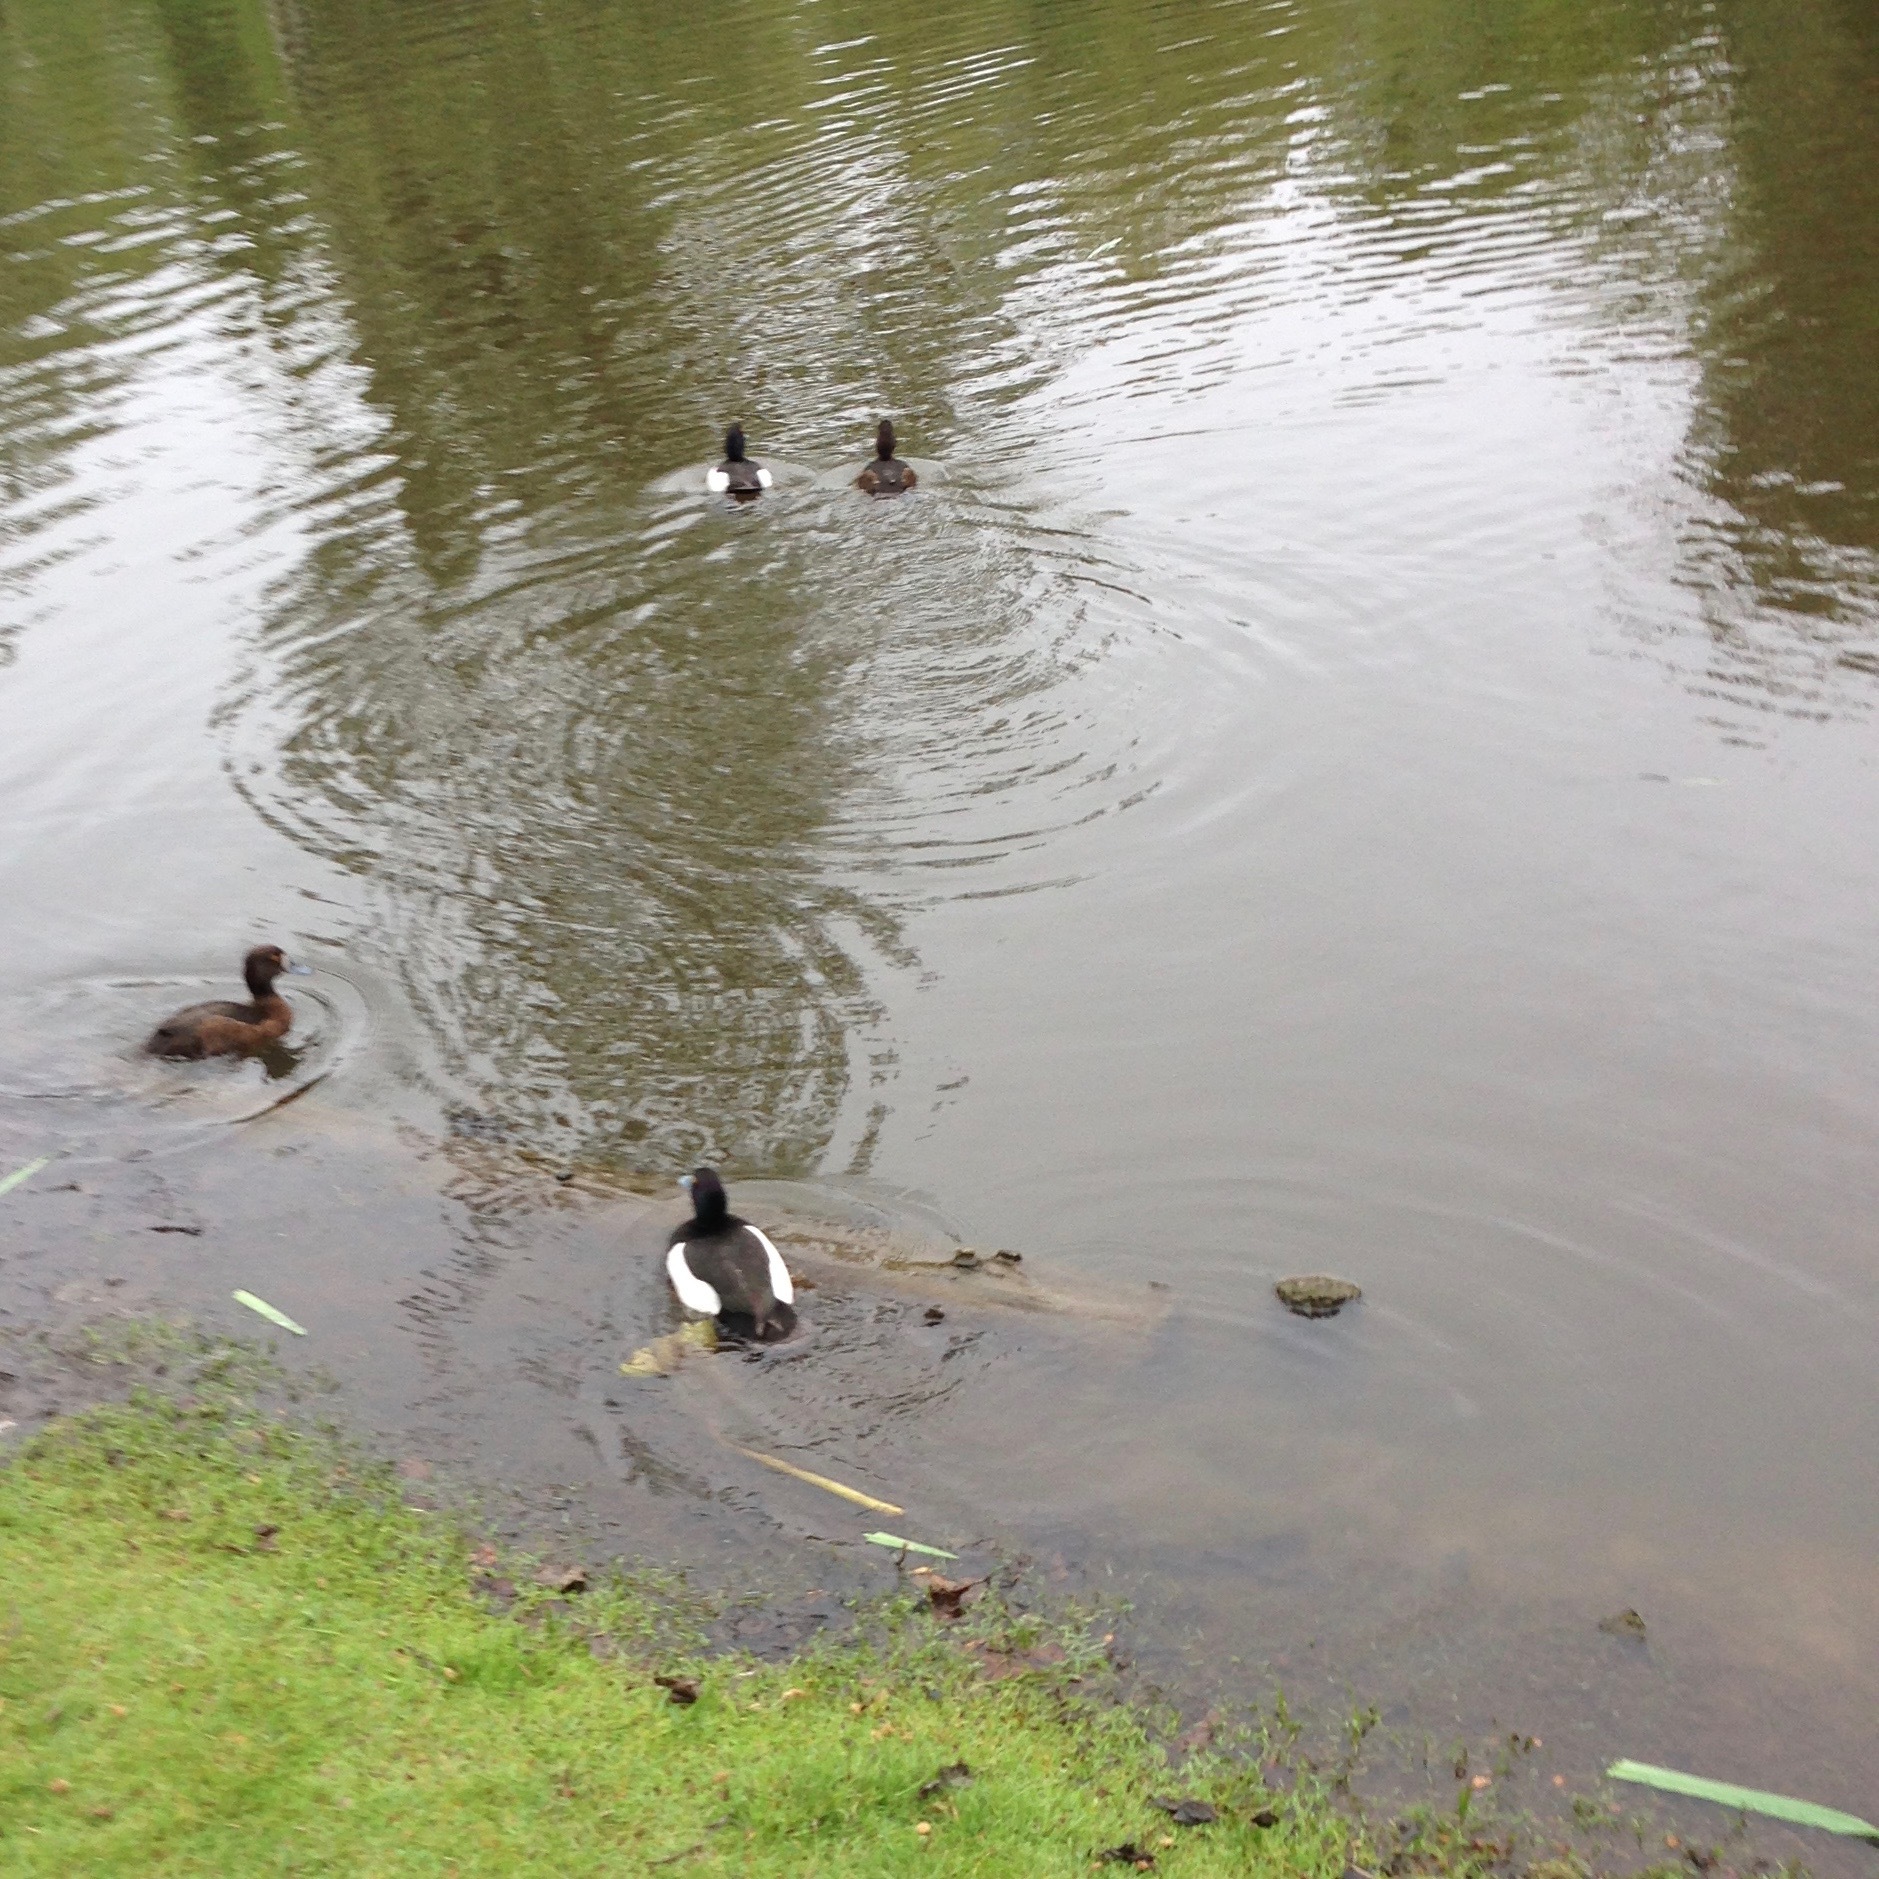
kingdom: Animalia
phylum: Chordata
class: Aves
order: Anseriformes
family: Anatidae
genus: Aythya
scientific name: Aythya fuligula
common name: Tufted duck
